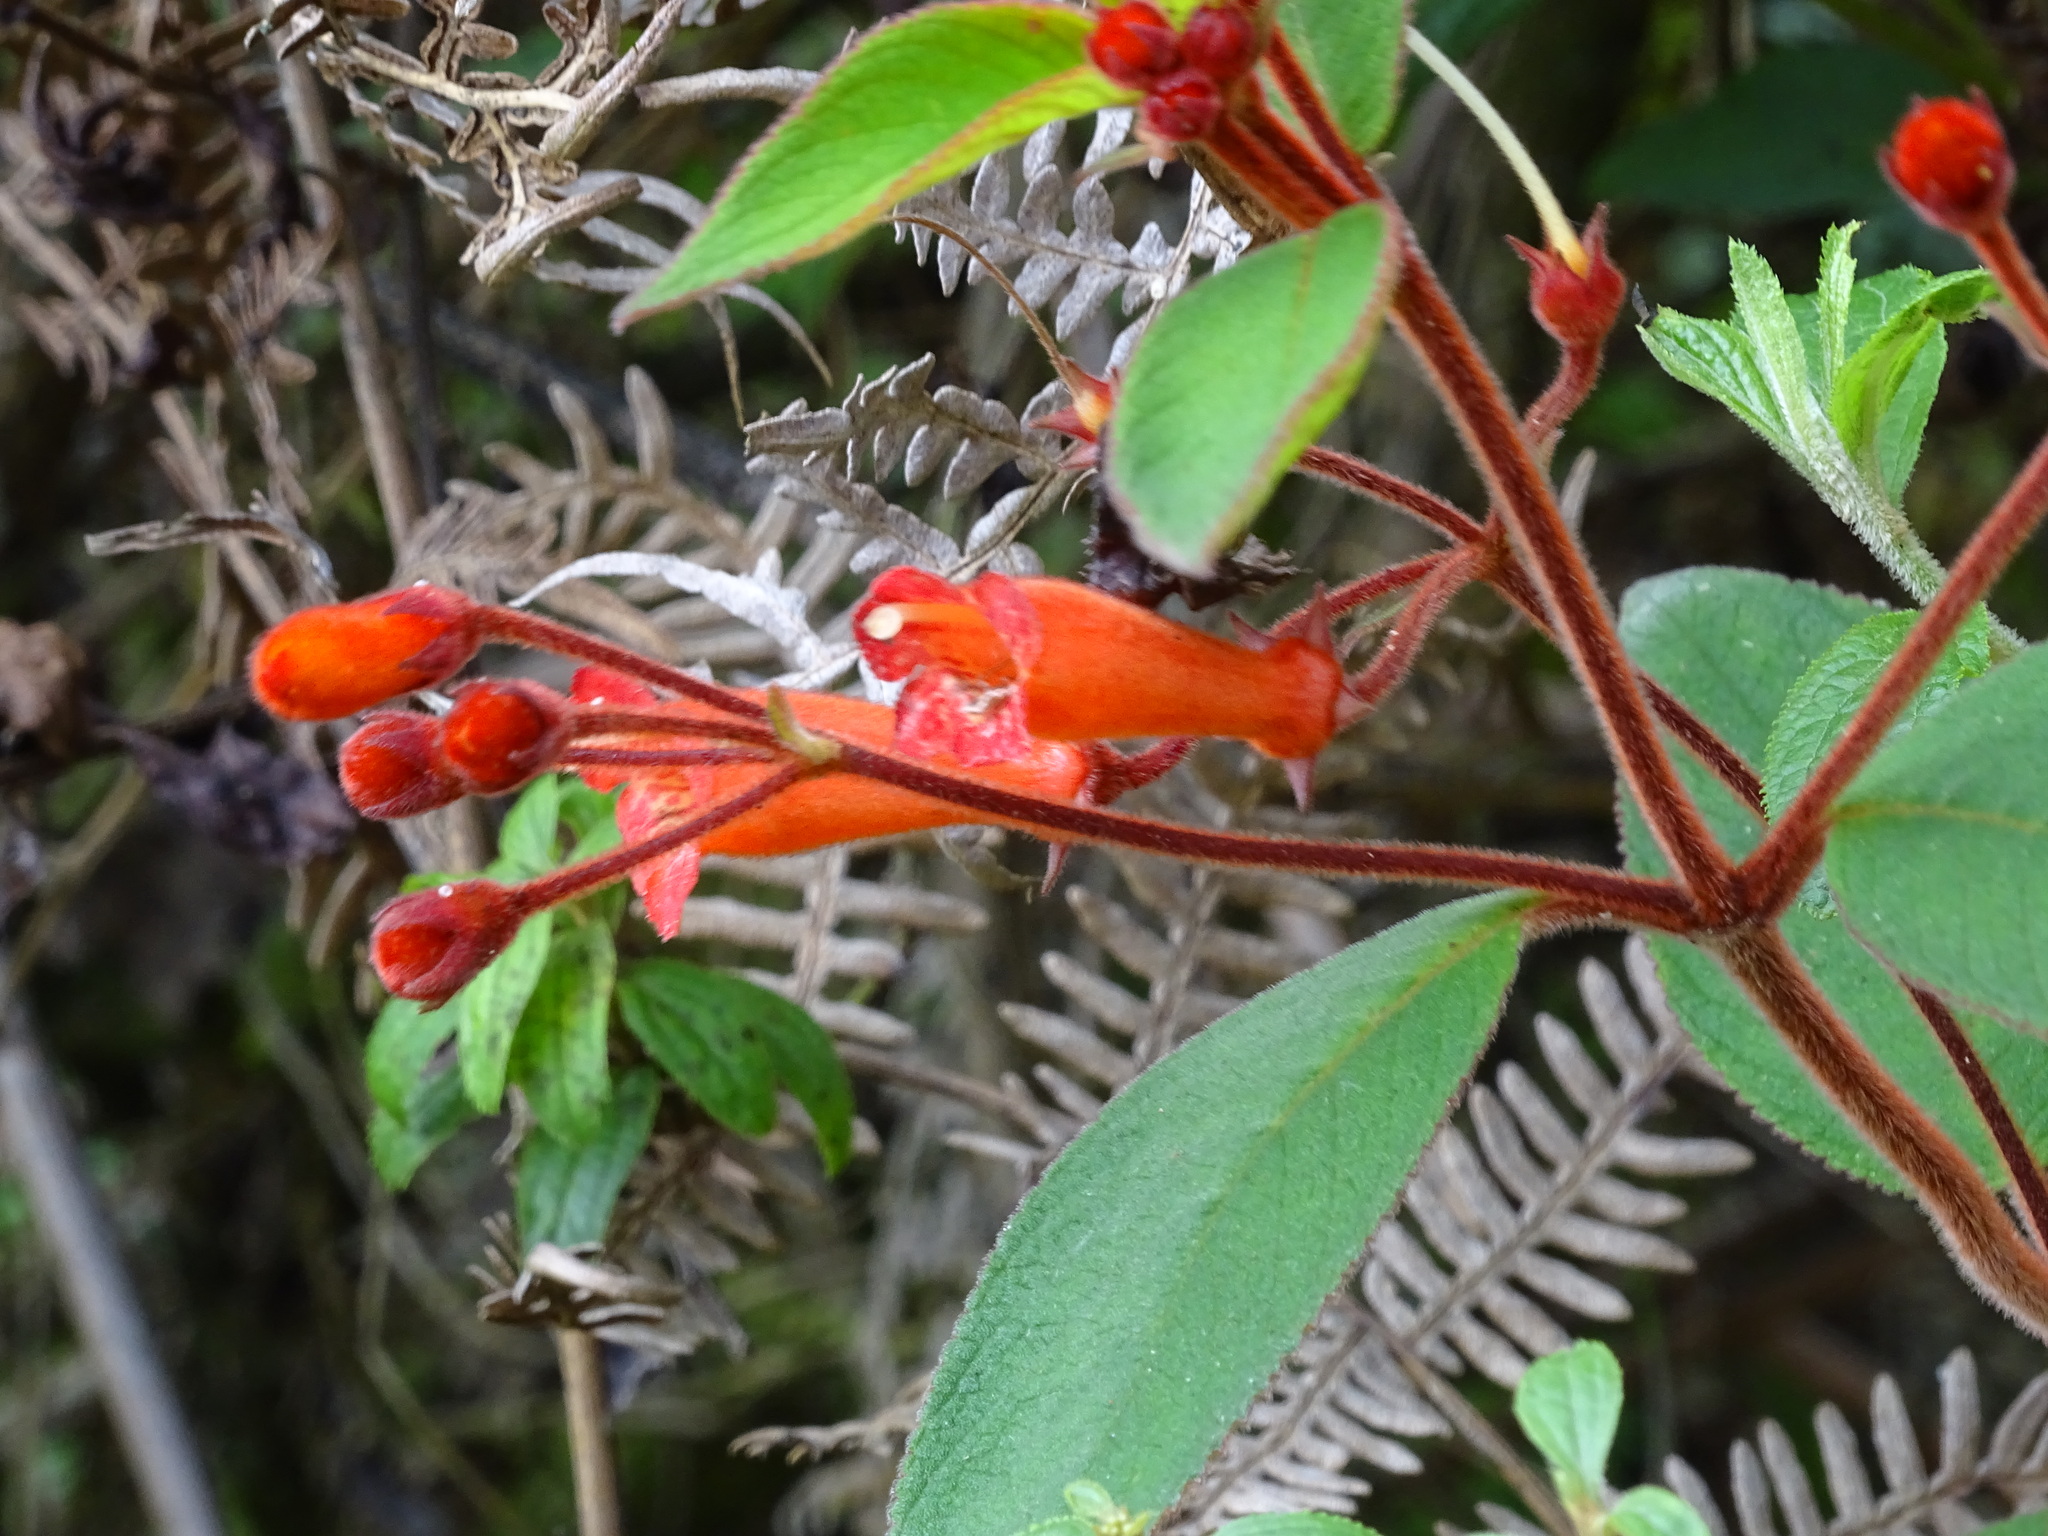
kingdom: Plantae
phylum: Tracheophyta
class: Magnoliopsida
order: Lamiales
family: Gesneriaceae
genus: Moussonia
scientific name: Moussonia deppeana
